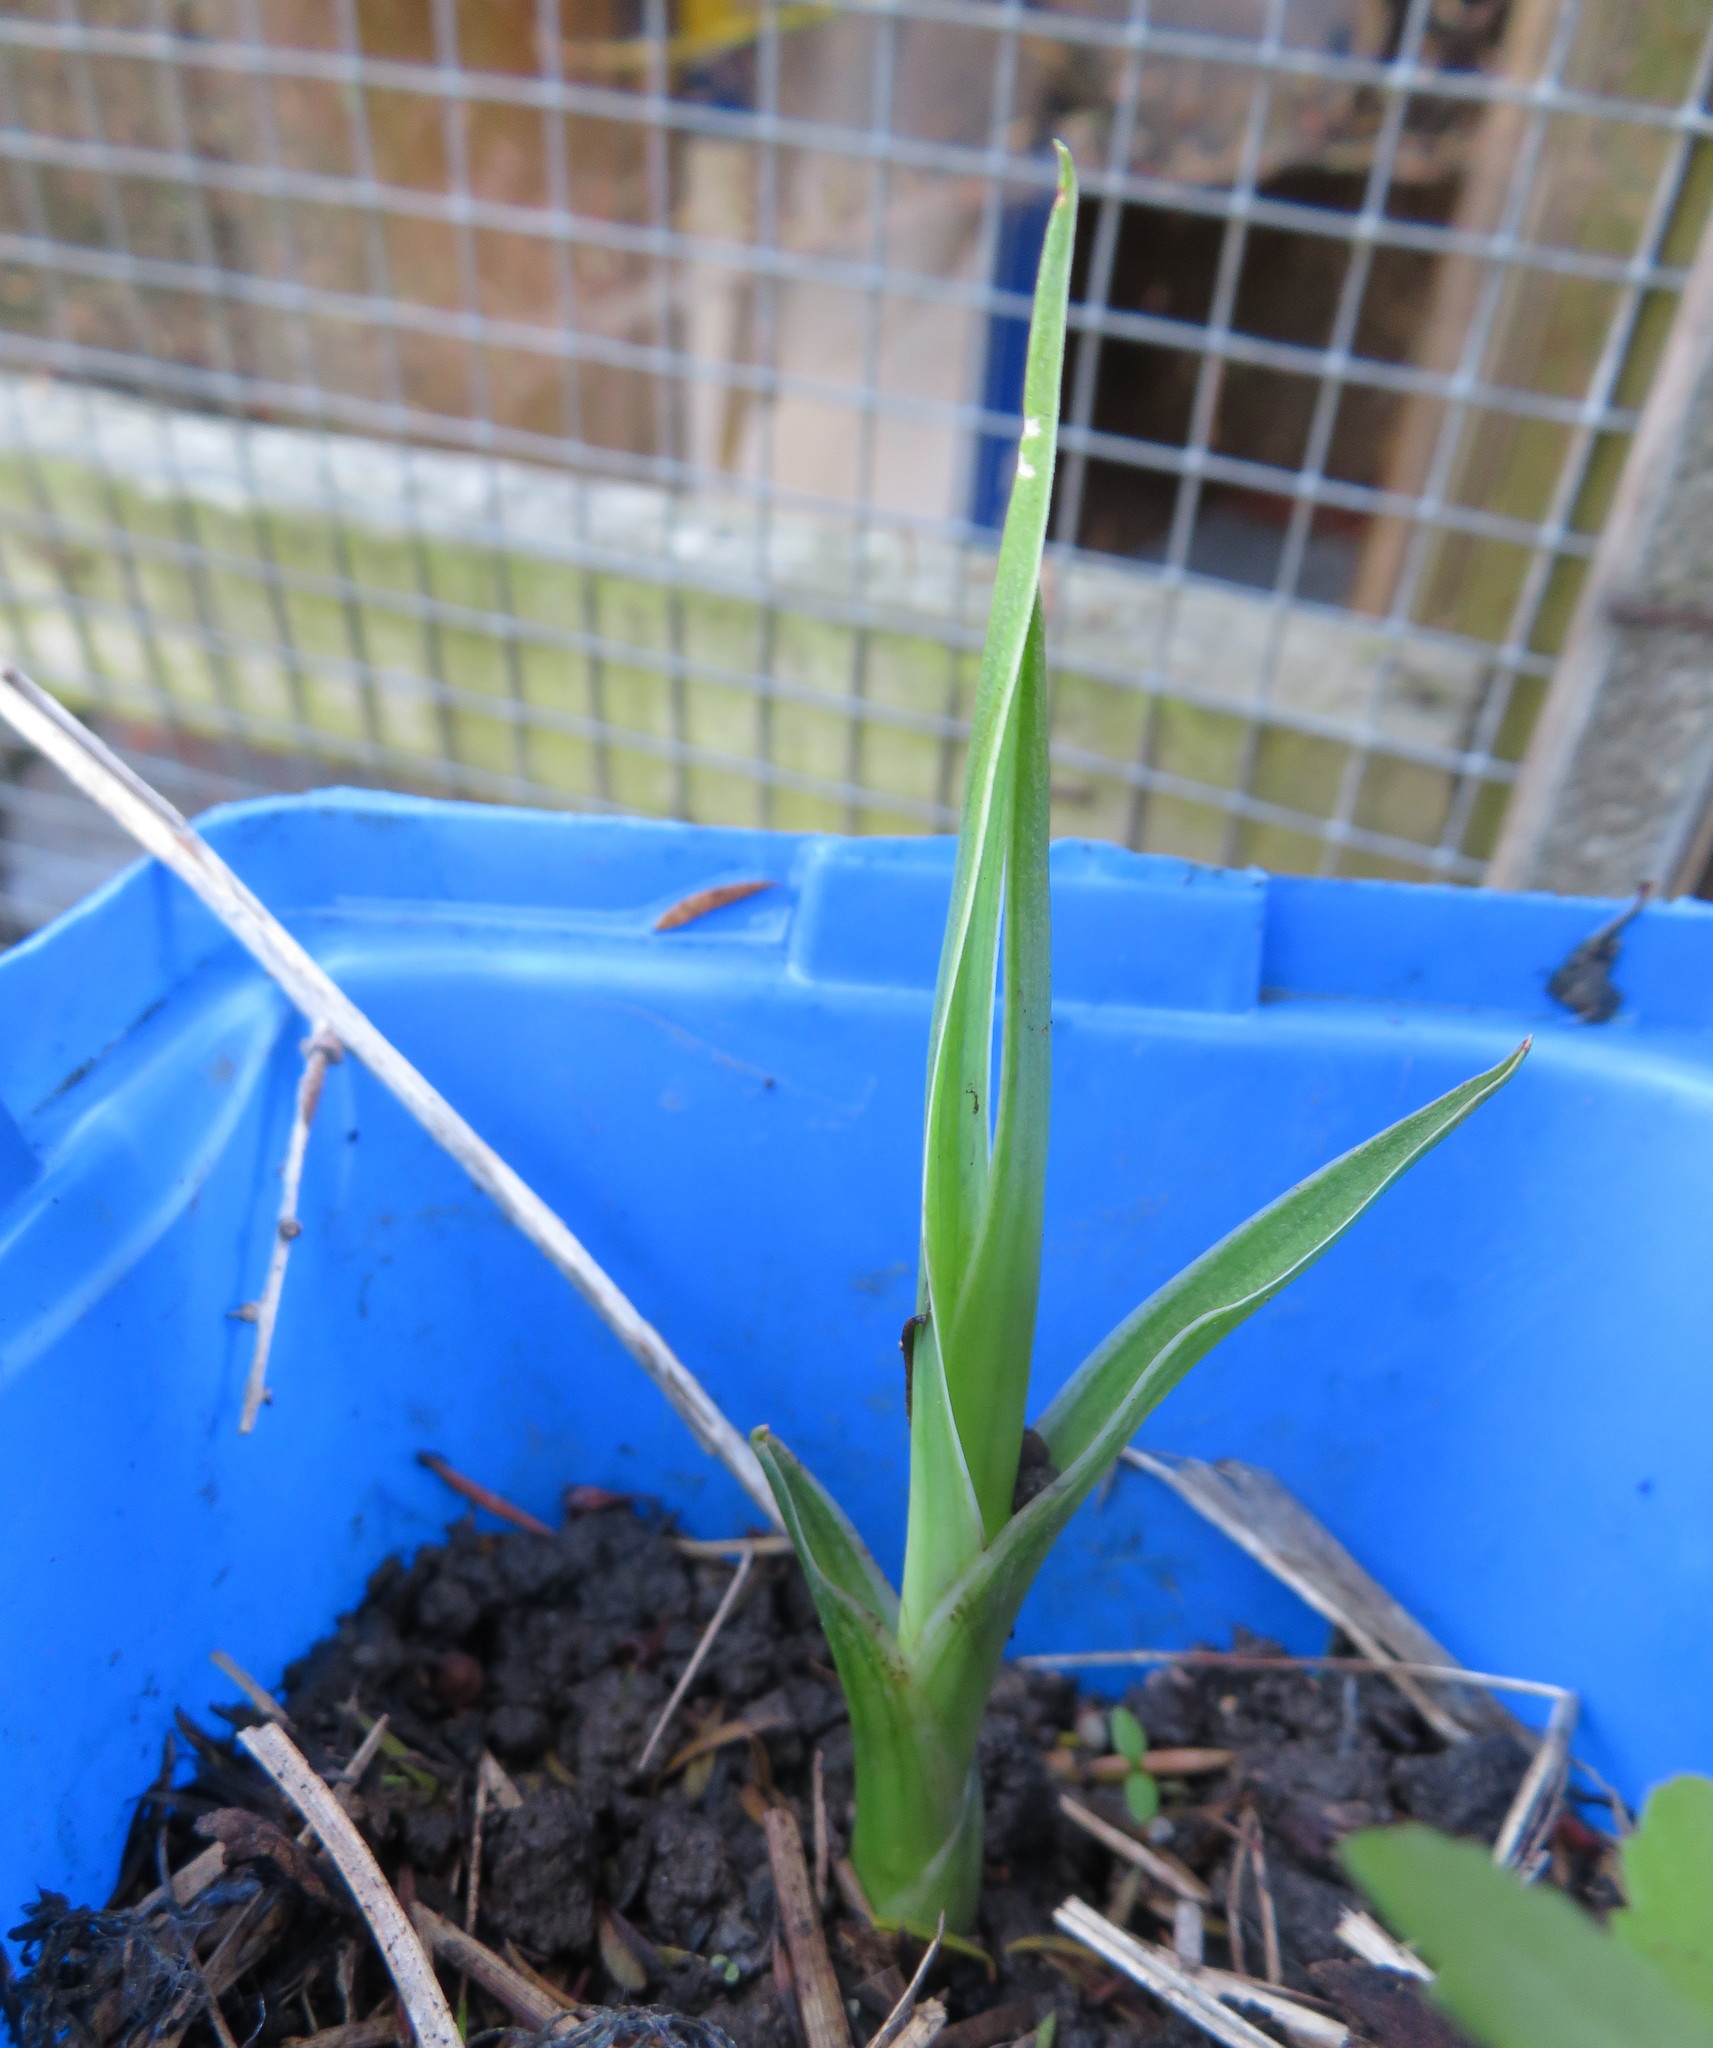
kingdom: Plantae
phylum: Tracheophyta
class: Liliopsida
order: Asparagales
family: Asparagaceae
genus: Dracaena
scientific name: Dracaena draco
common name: Canary island dragon tree
